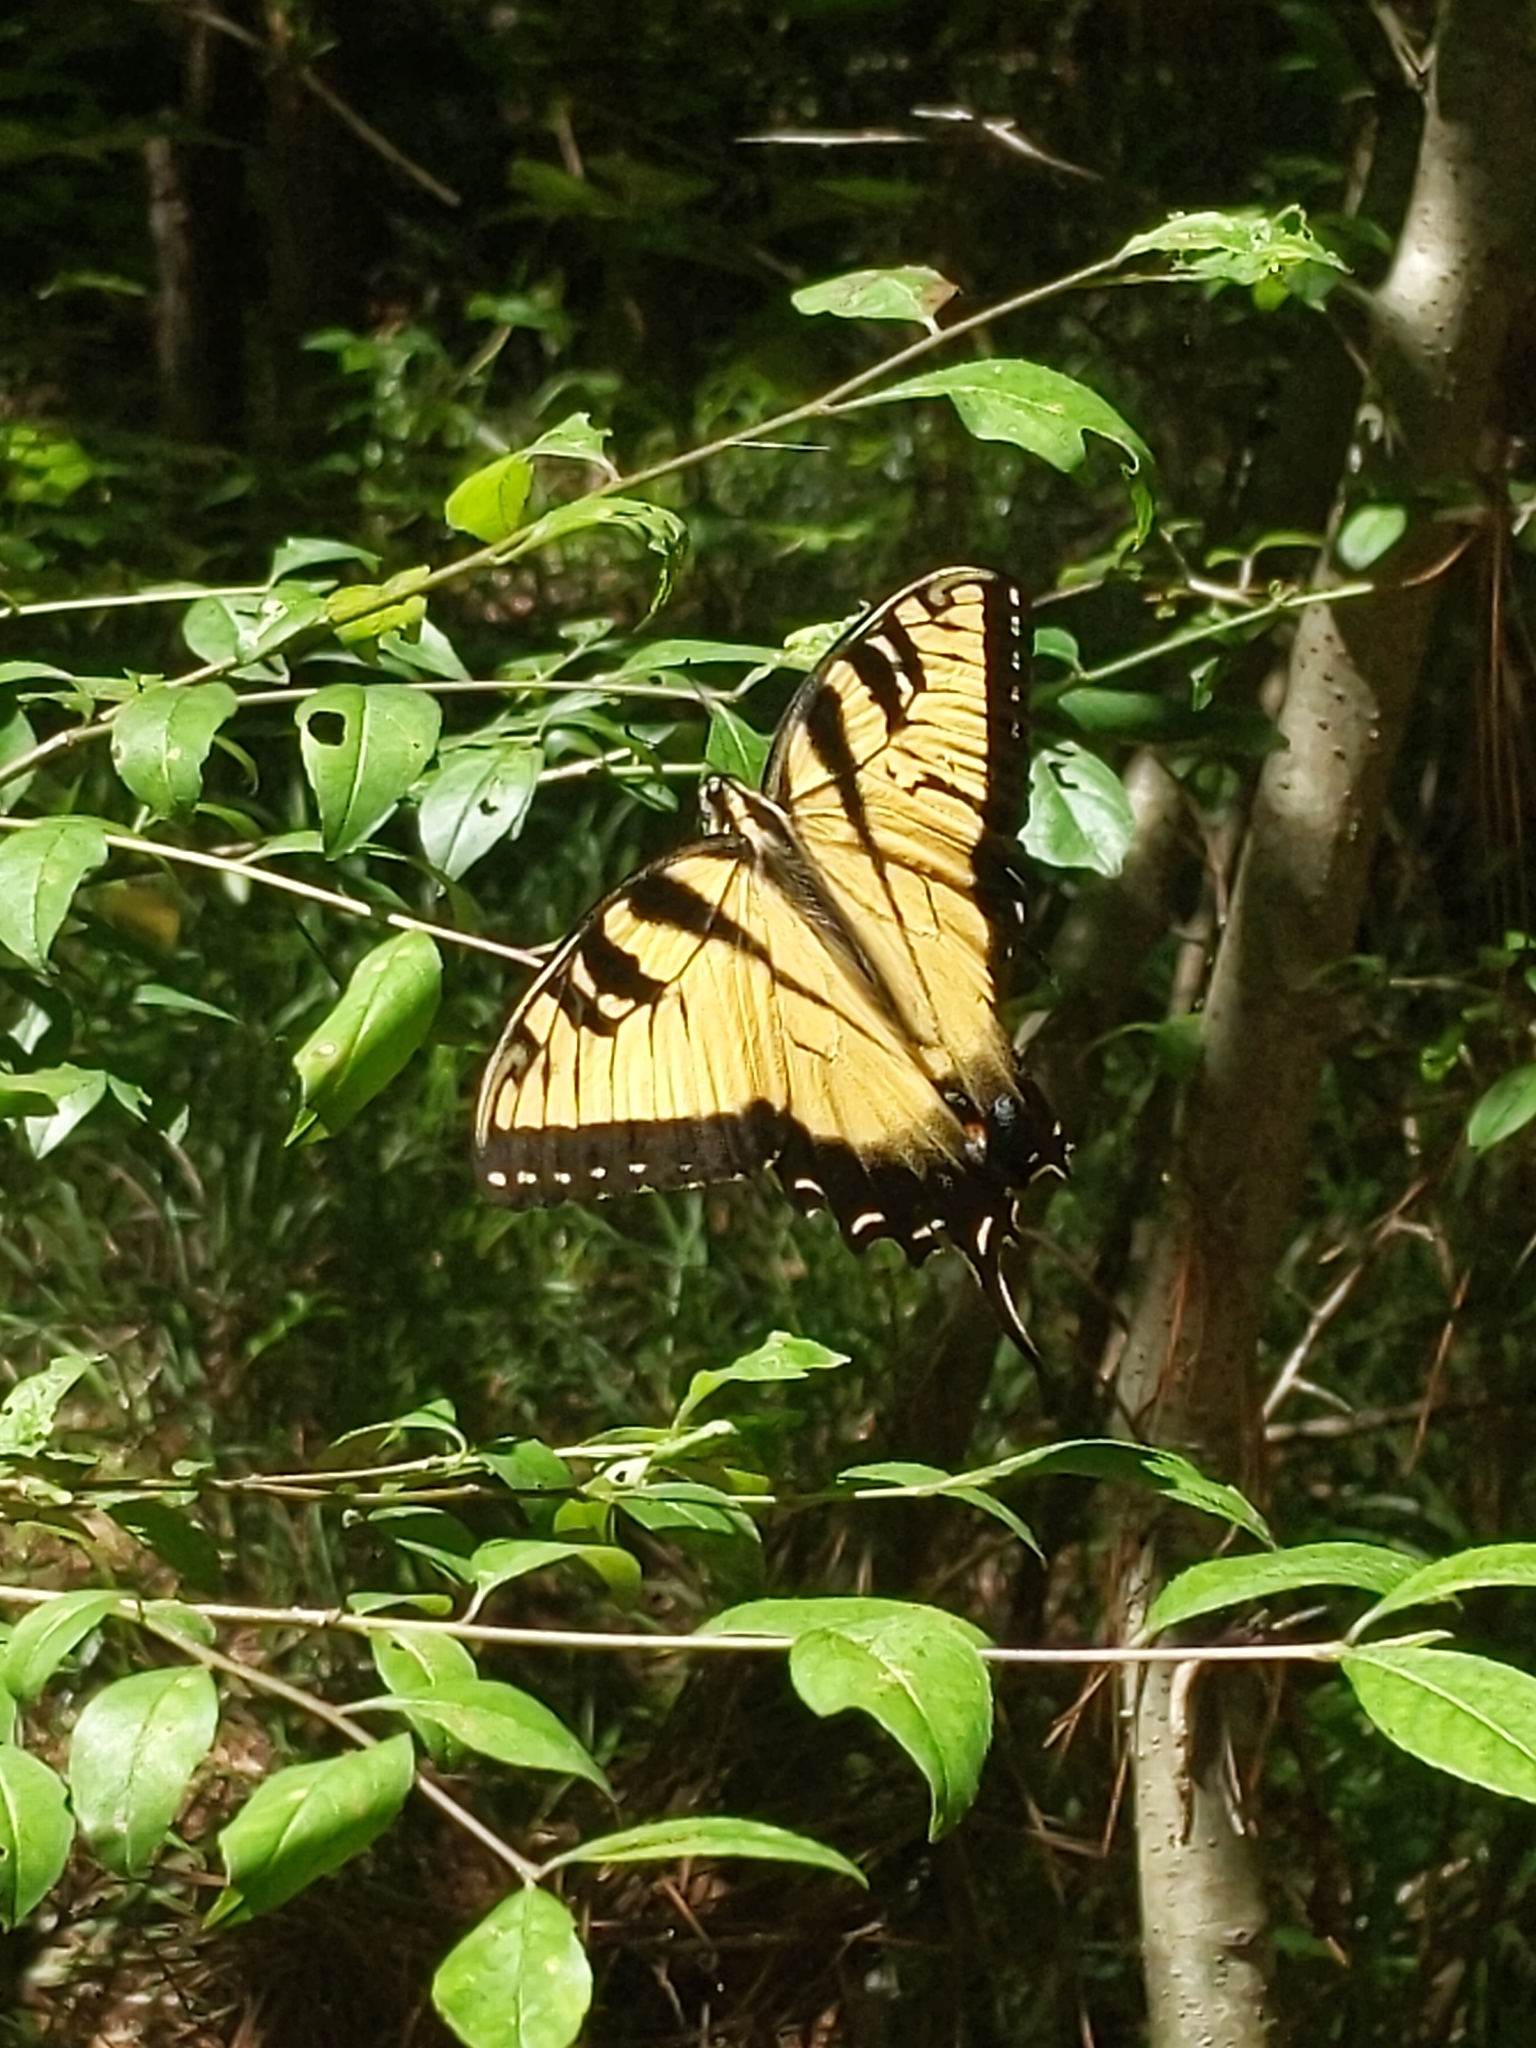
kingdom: Animalia
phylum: Arthropoda
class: Insecta
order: Lepidoptera
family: Papilionidae
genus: Papilio
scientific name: Papilio glaucus
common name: Tiger swallowtail
